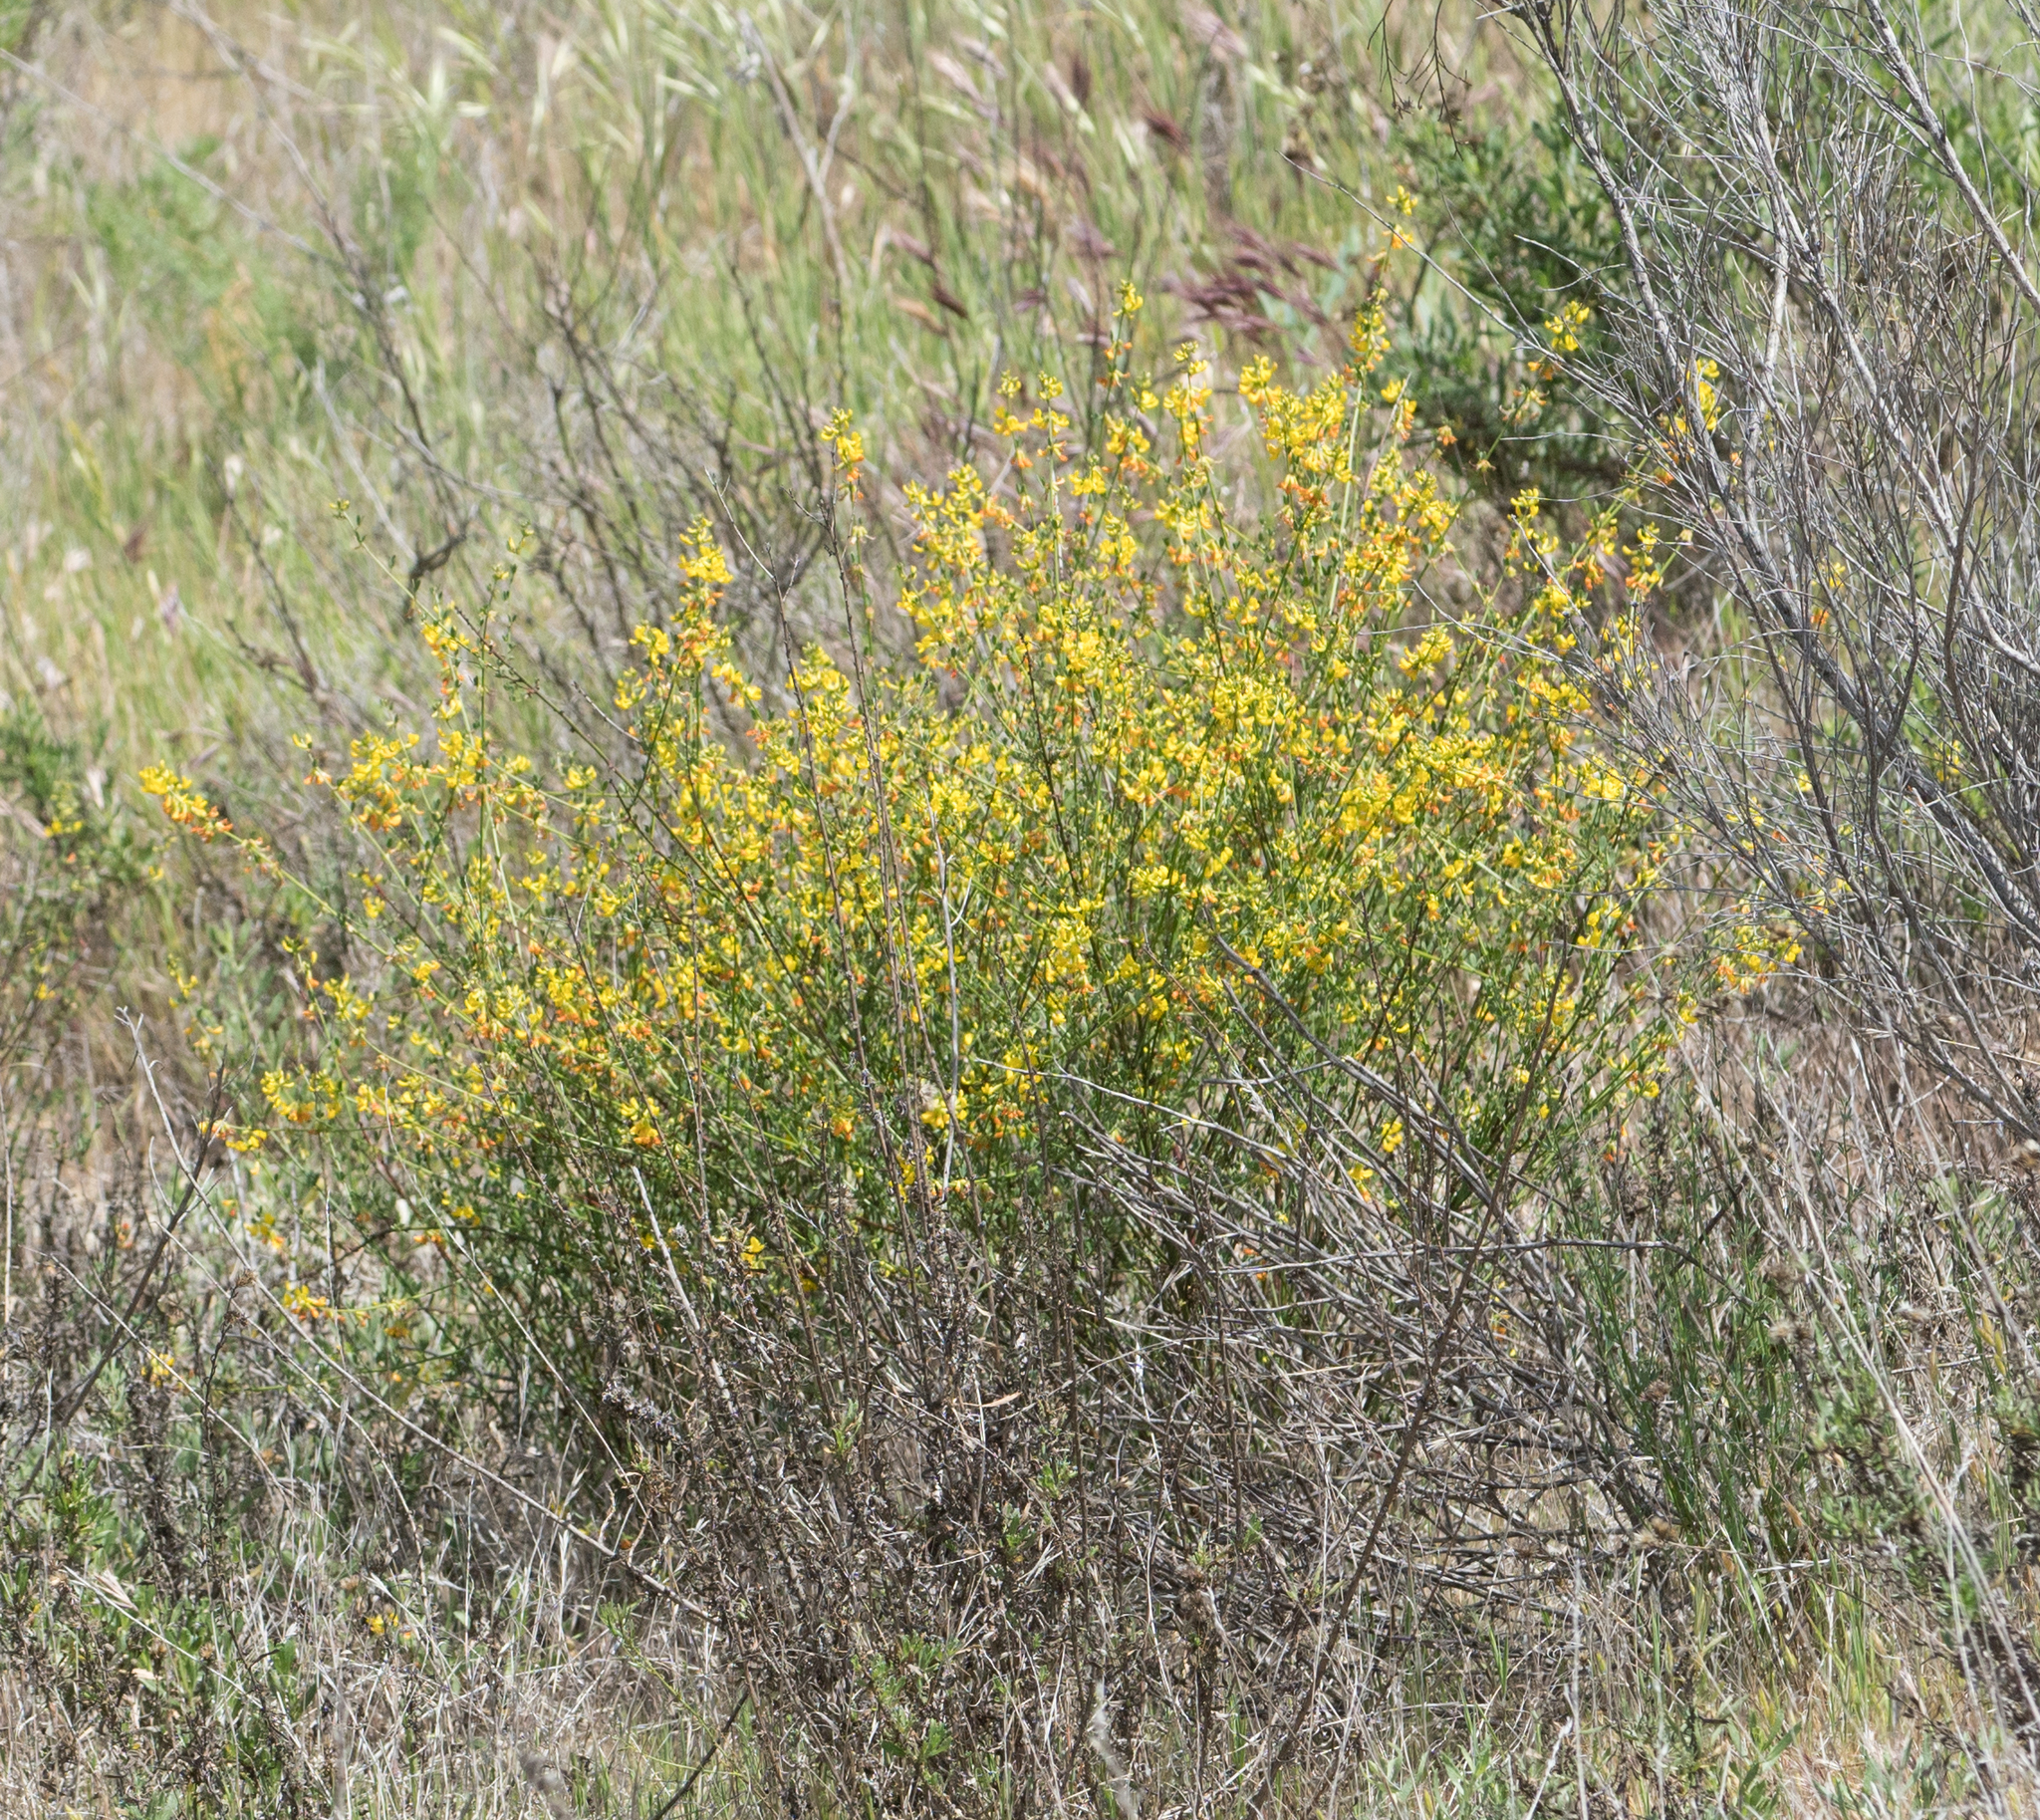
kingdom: Plantae
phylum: Tracheophyta
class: Magnoliopsida
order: Fabales
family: Fabaceae
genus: Acmispon
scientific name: Acmispon glaber
